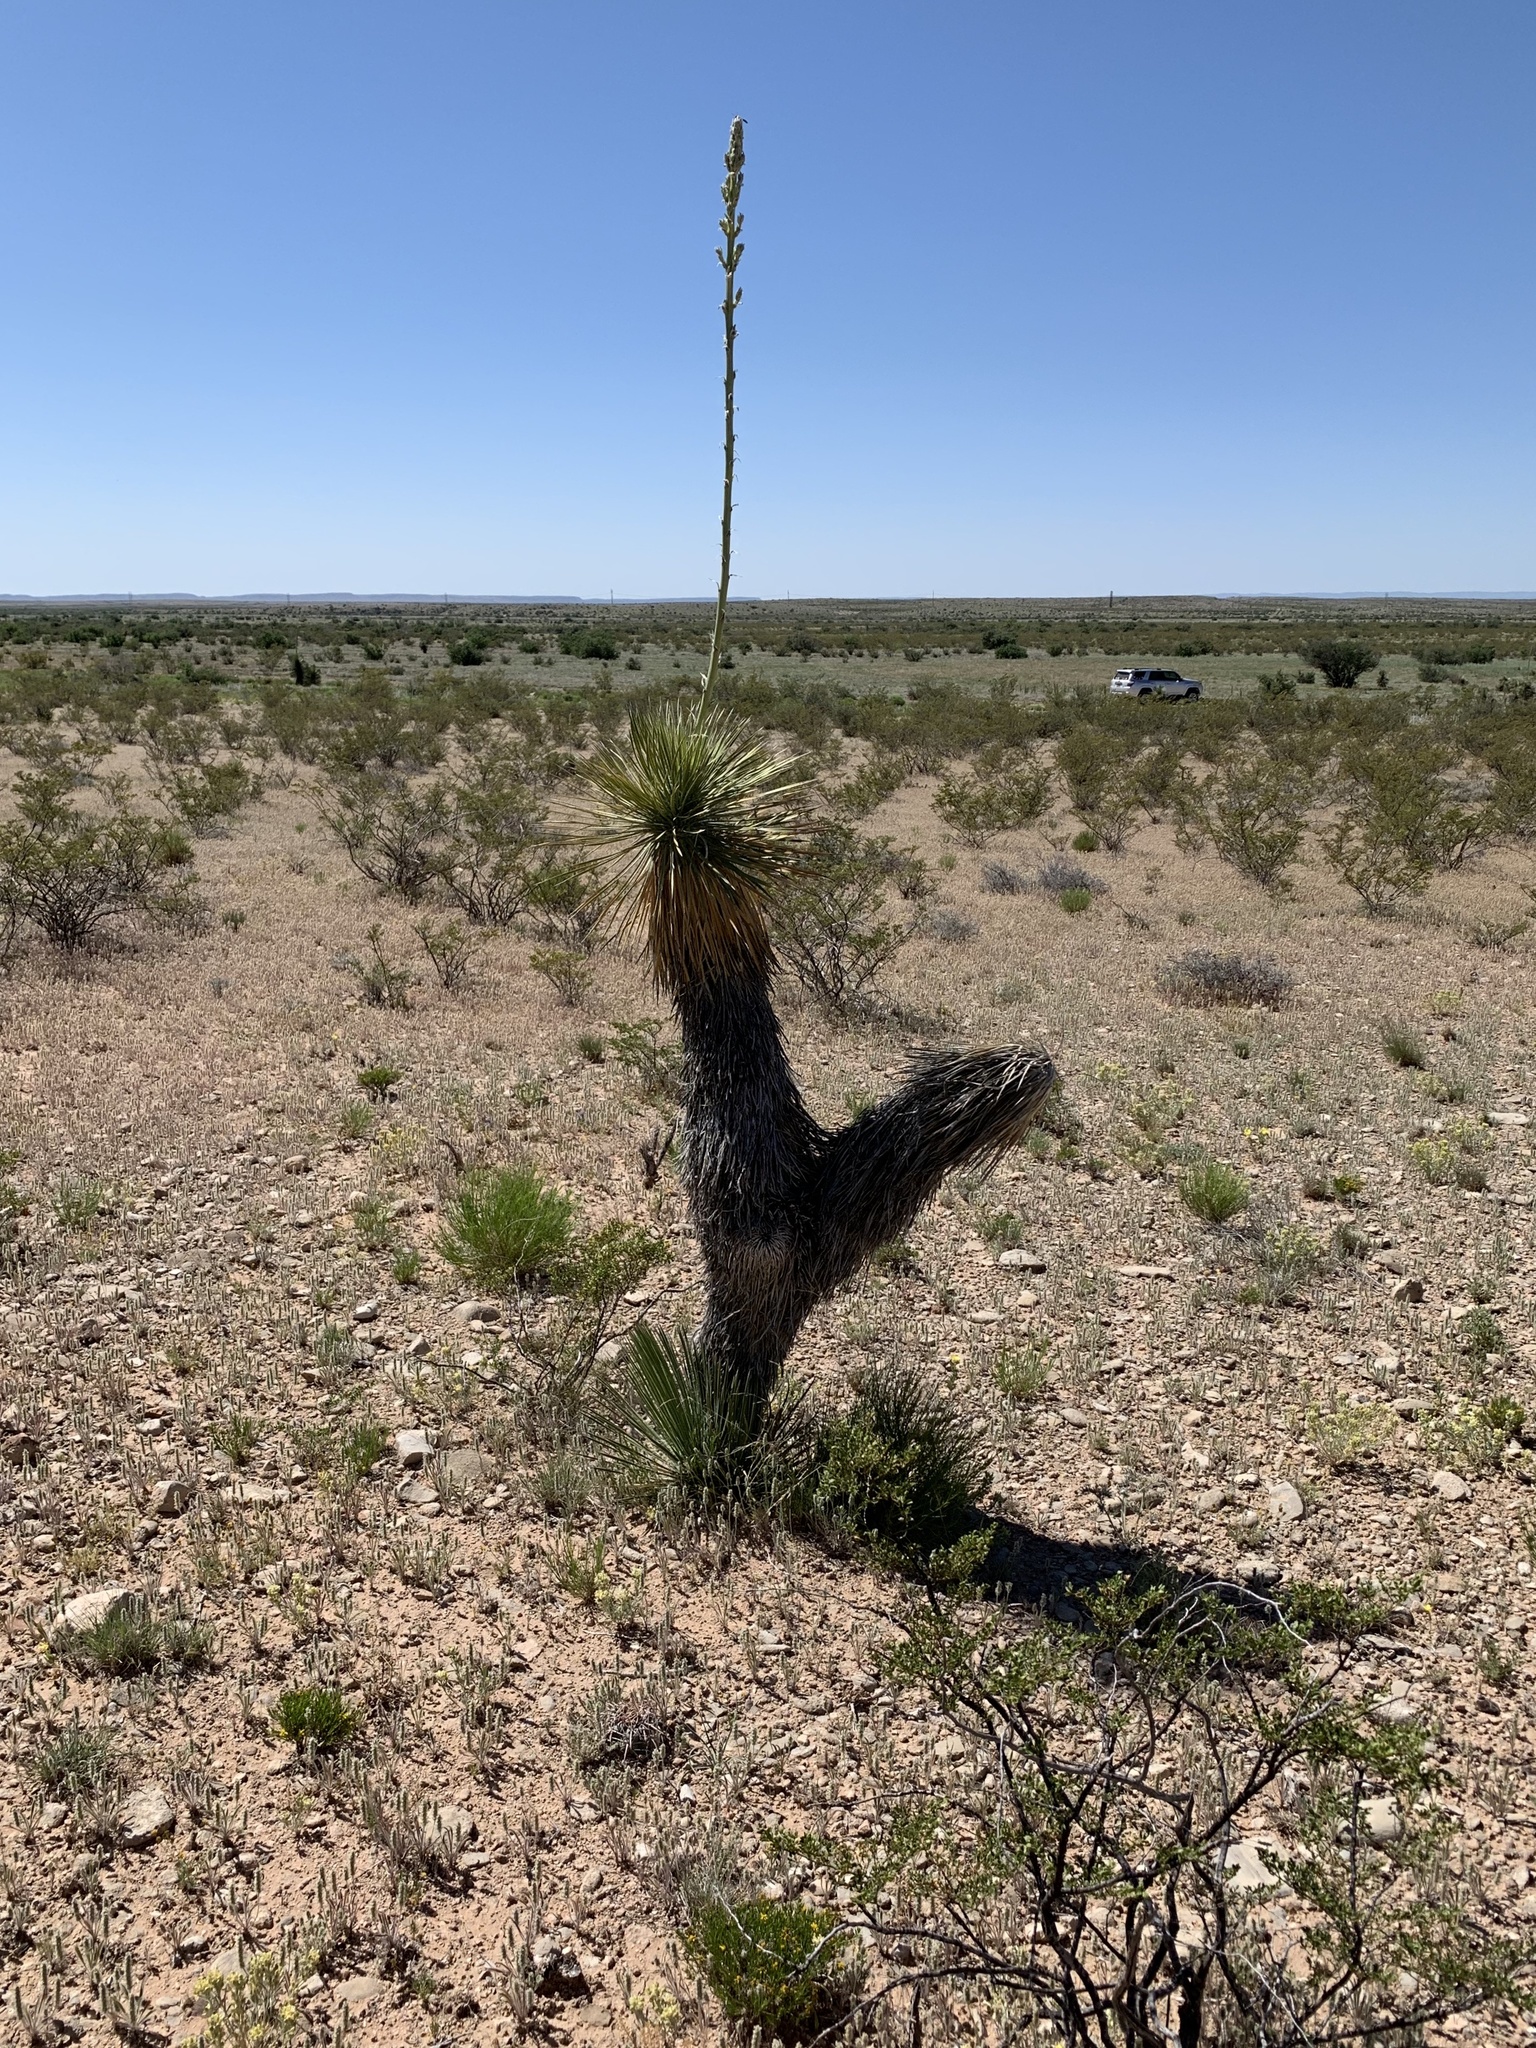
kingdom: Plantae
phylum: Tracheophyta
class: Liliopsida
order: Asparagales
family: Asparagaceae
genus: Yucca
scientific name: Yucca elata
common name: Palmella
